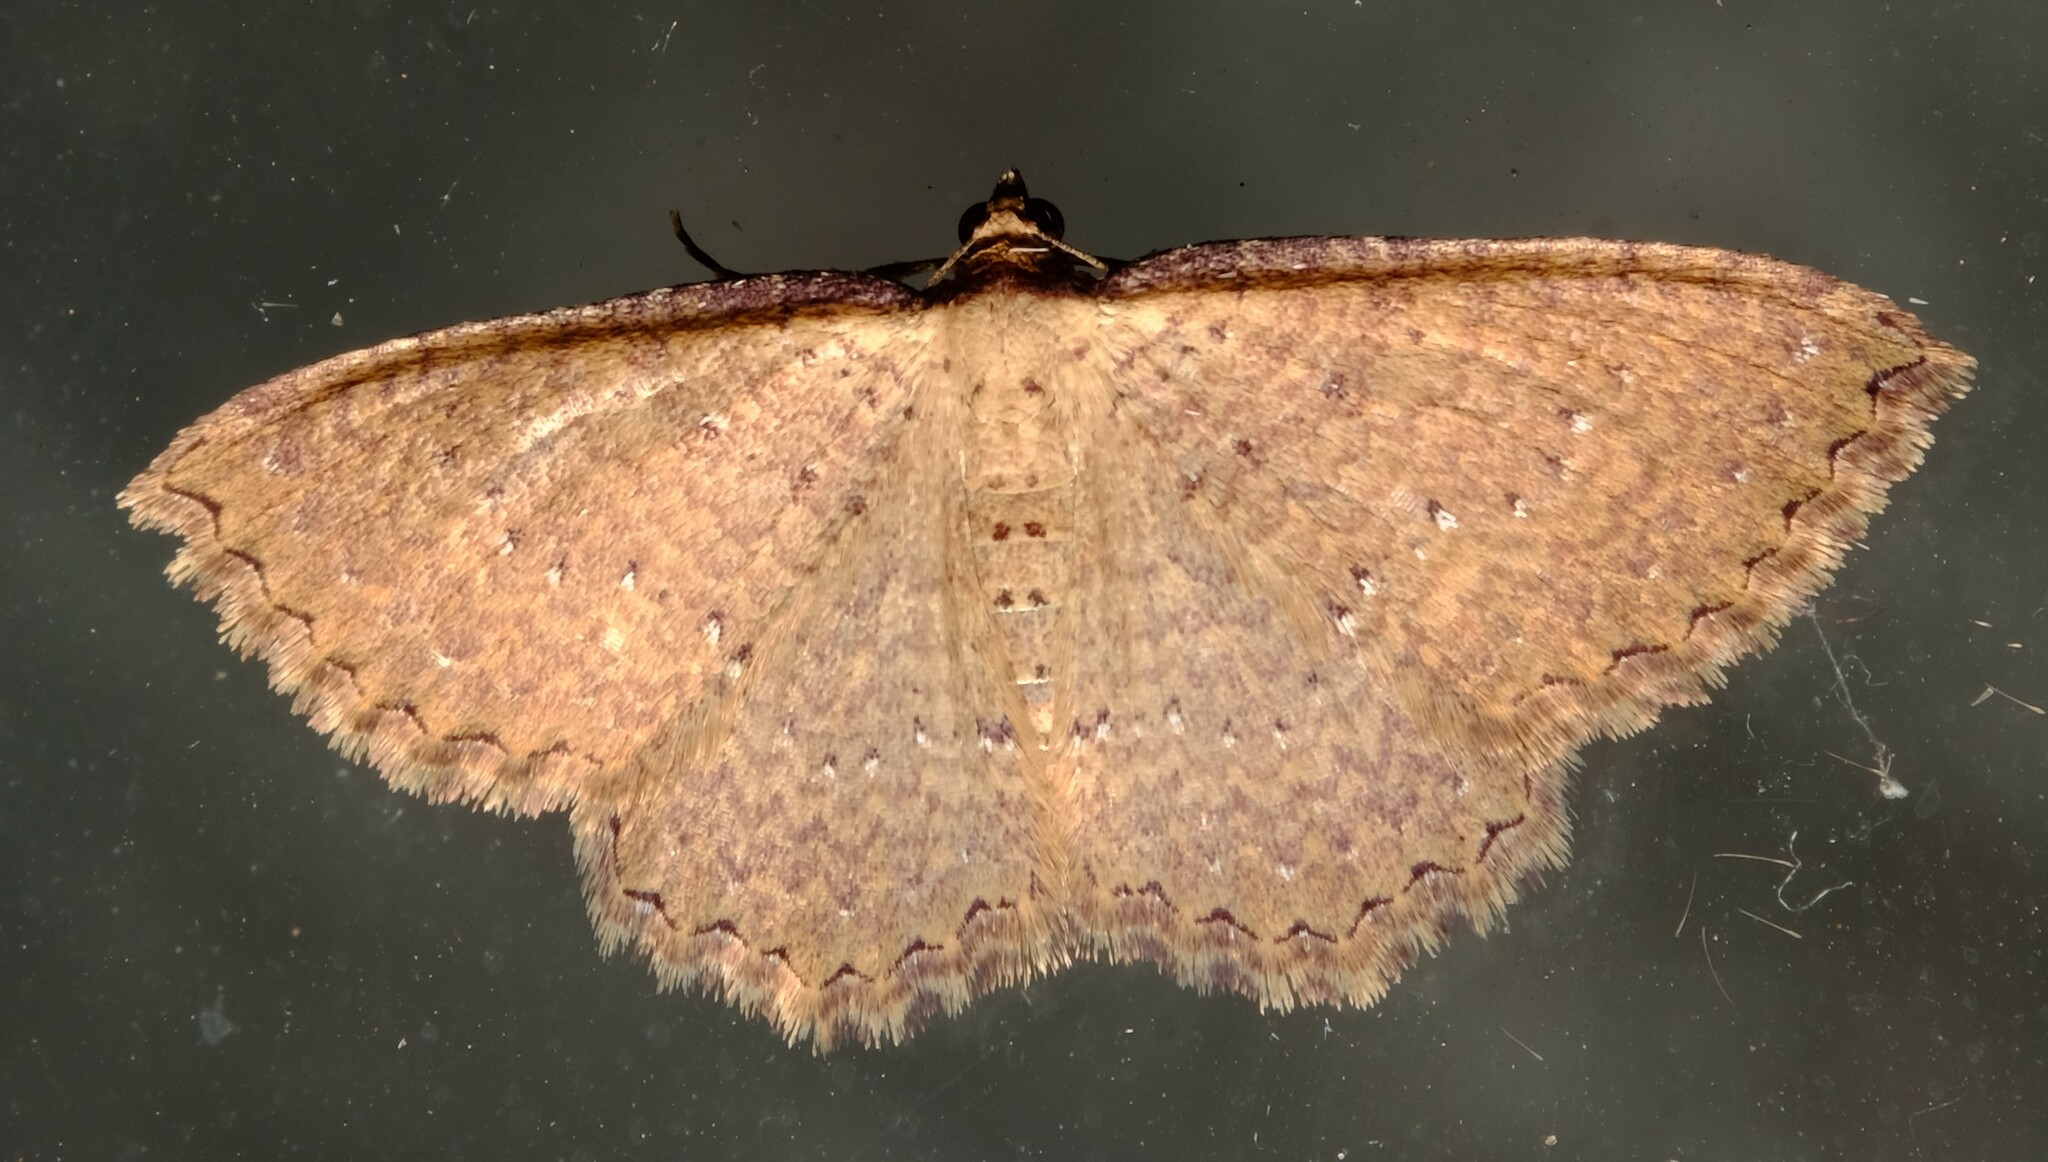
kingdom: Animalia
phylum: Arthropoda
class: Insecta
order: Lepidoptera
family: Geometridae
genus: Chrysolarentia
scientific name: Chrysolarentia microcyma
